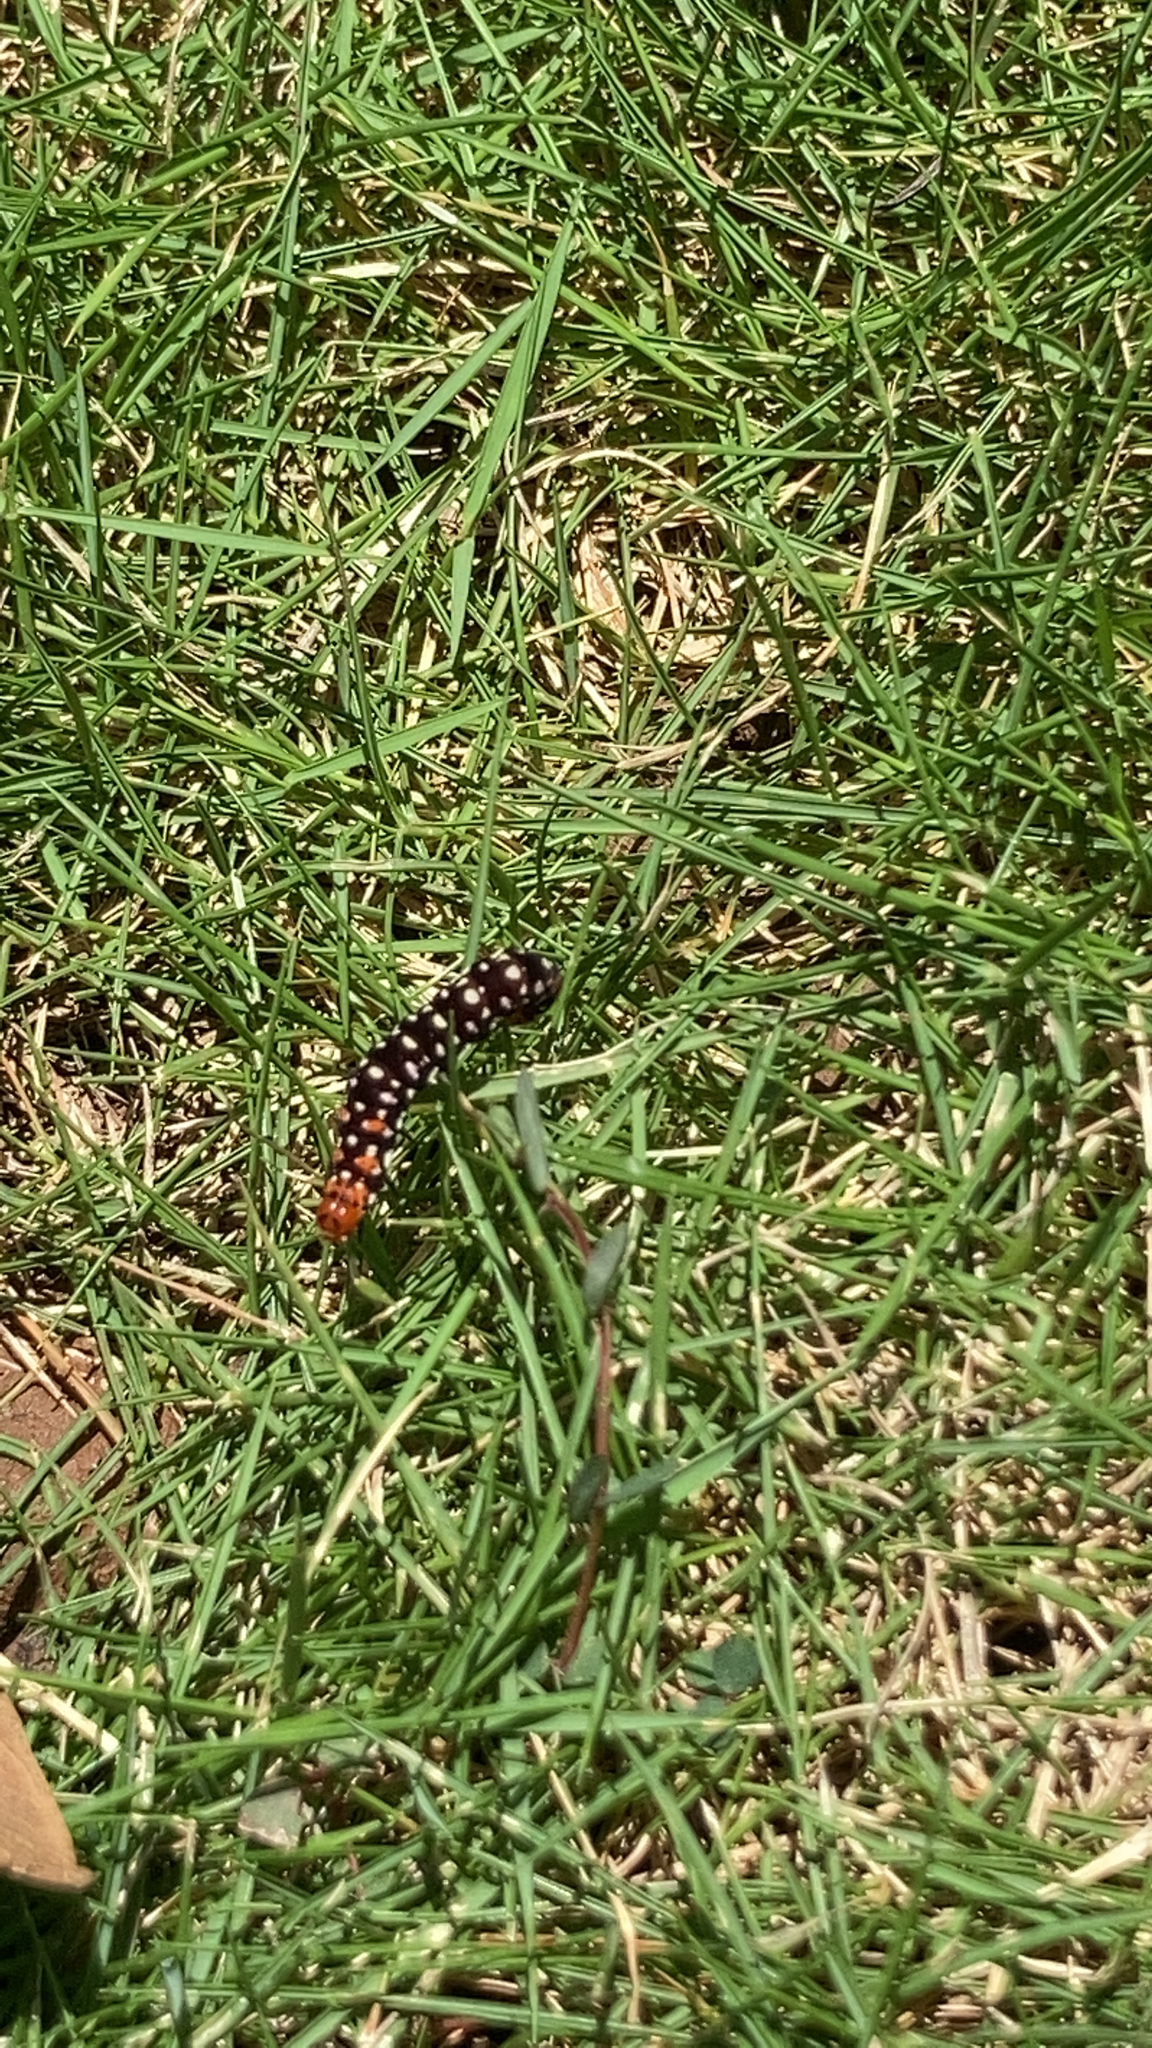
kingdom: Animalia
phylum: Arthropoda
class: Insecta
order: Lepidoptera
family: Noctuidae
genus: Polytela
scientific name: Polytela gloriosae
